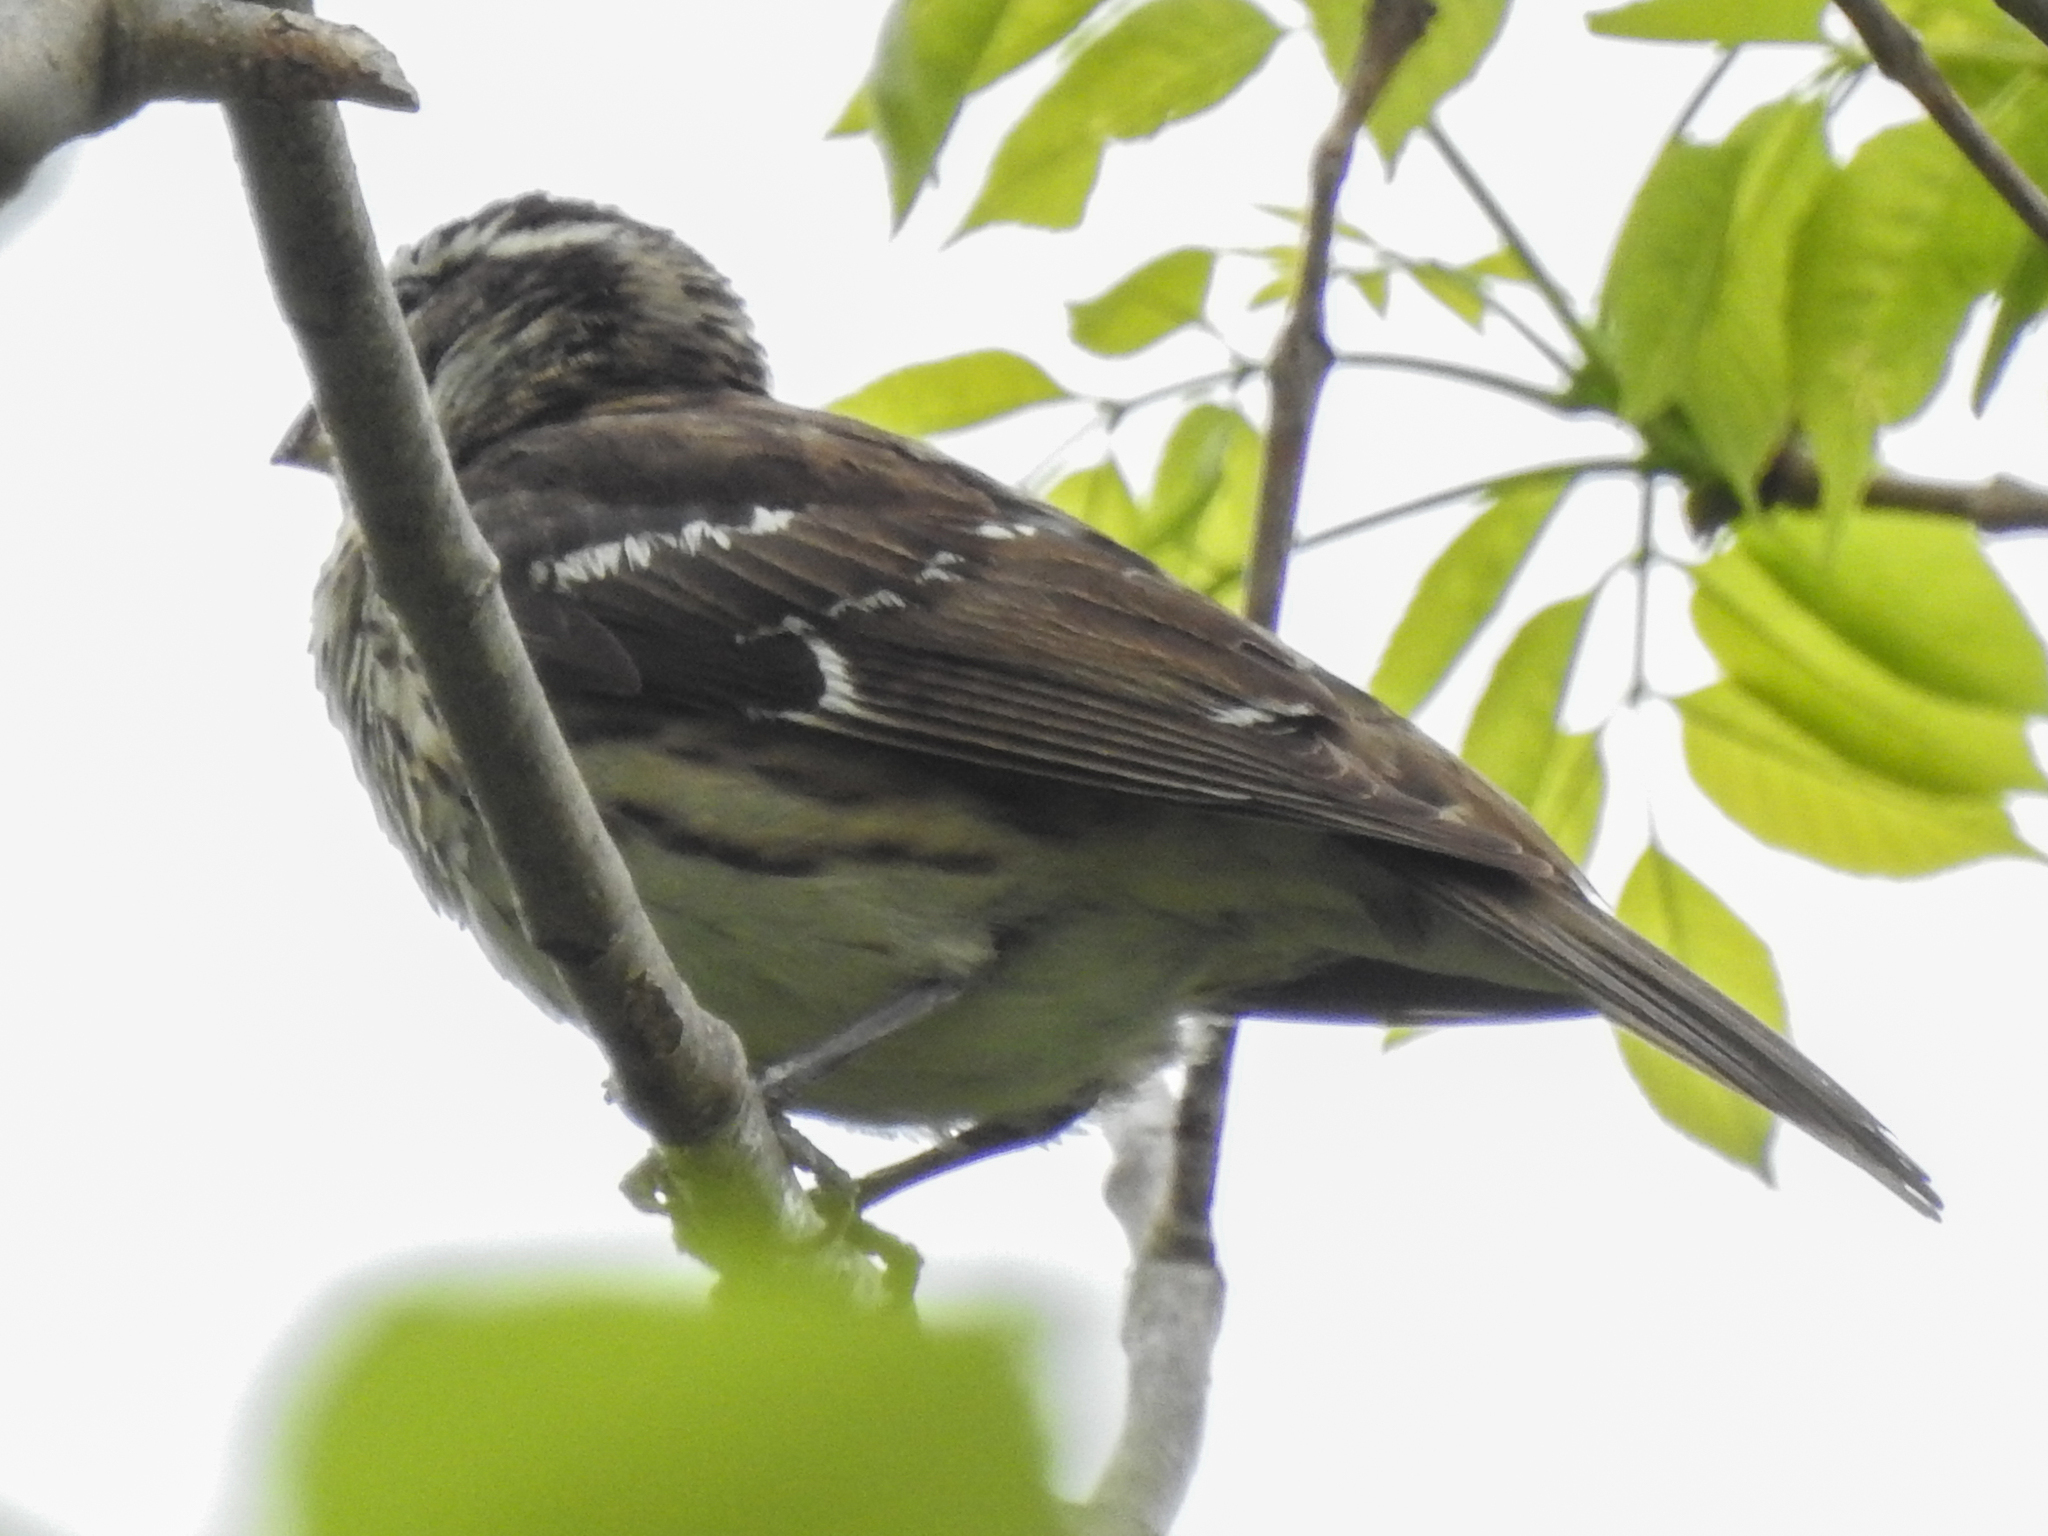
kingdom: Animalia
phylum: Chordata
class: Aves
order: Passeriformes
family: Cardinalidae
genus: Pheucticus
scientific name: Pheucticus ludovicianus
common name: Rose-breasted grosbeak
